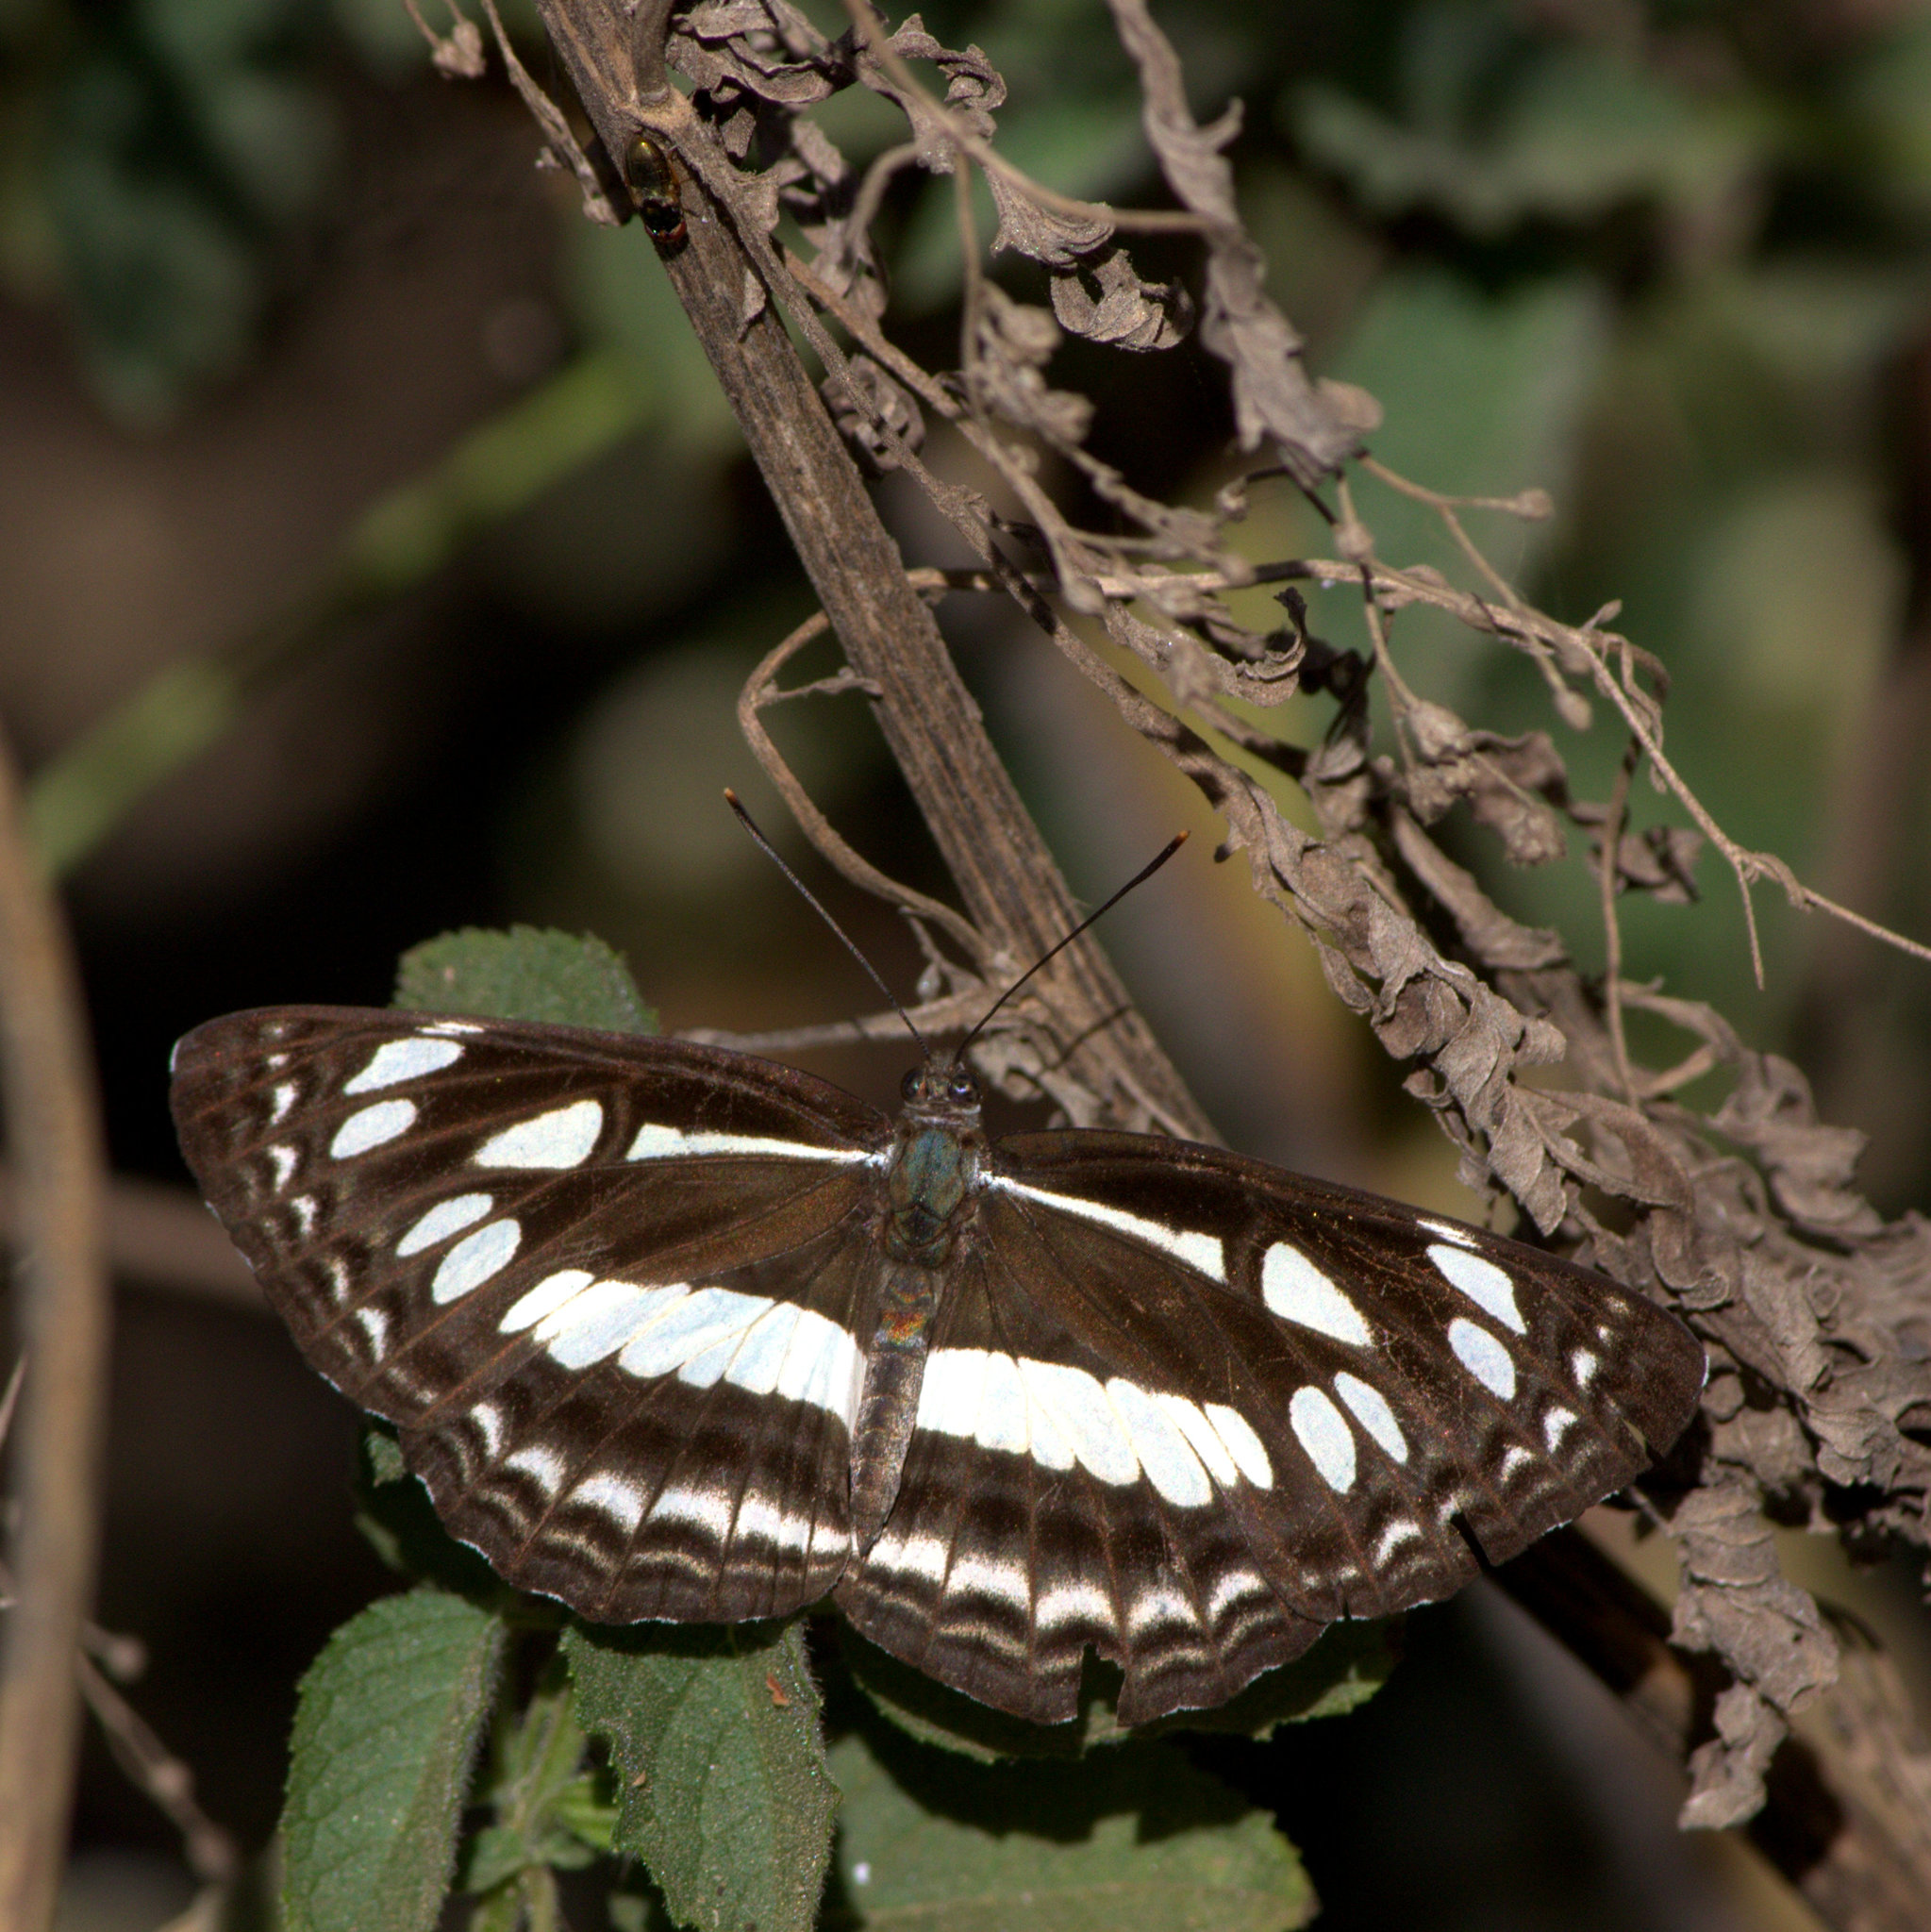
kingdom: Animalia
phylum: Arthropoda
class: Insecta
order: Lepidoptera
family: Nymphalidae
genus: Neptis
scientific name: Neptis jumbah
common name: Chestnut-streaked sailer
